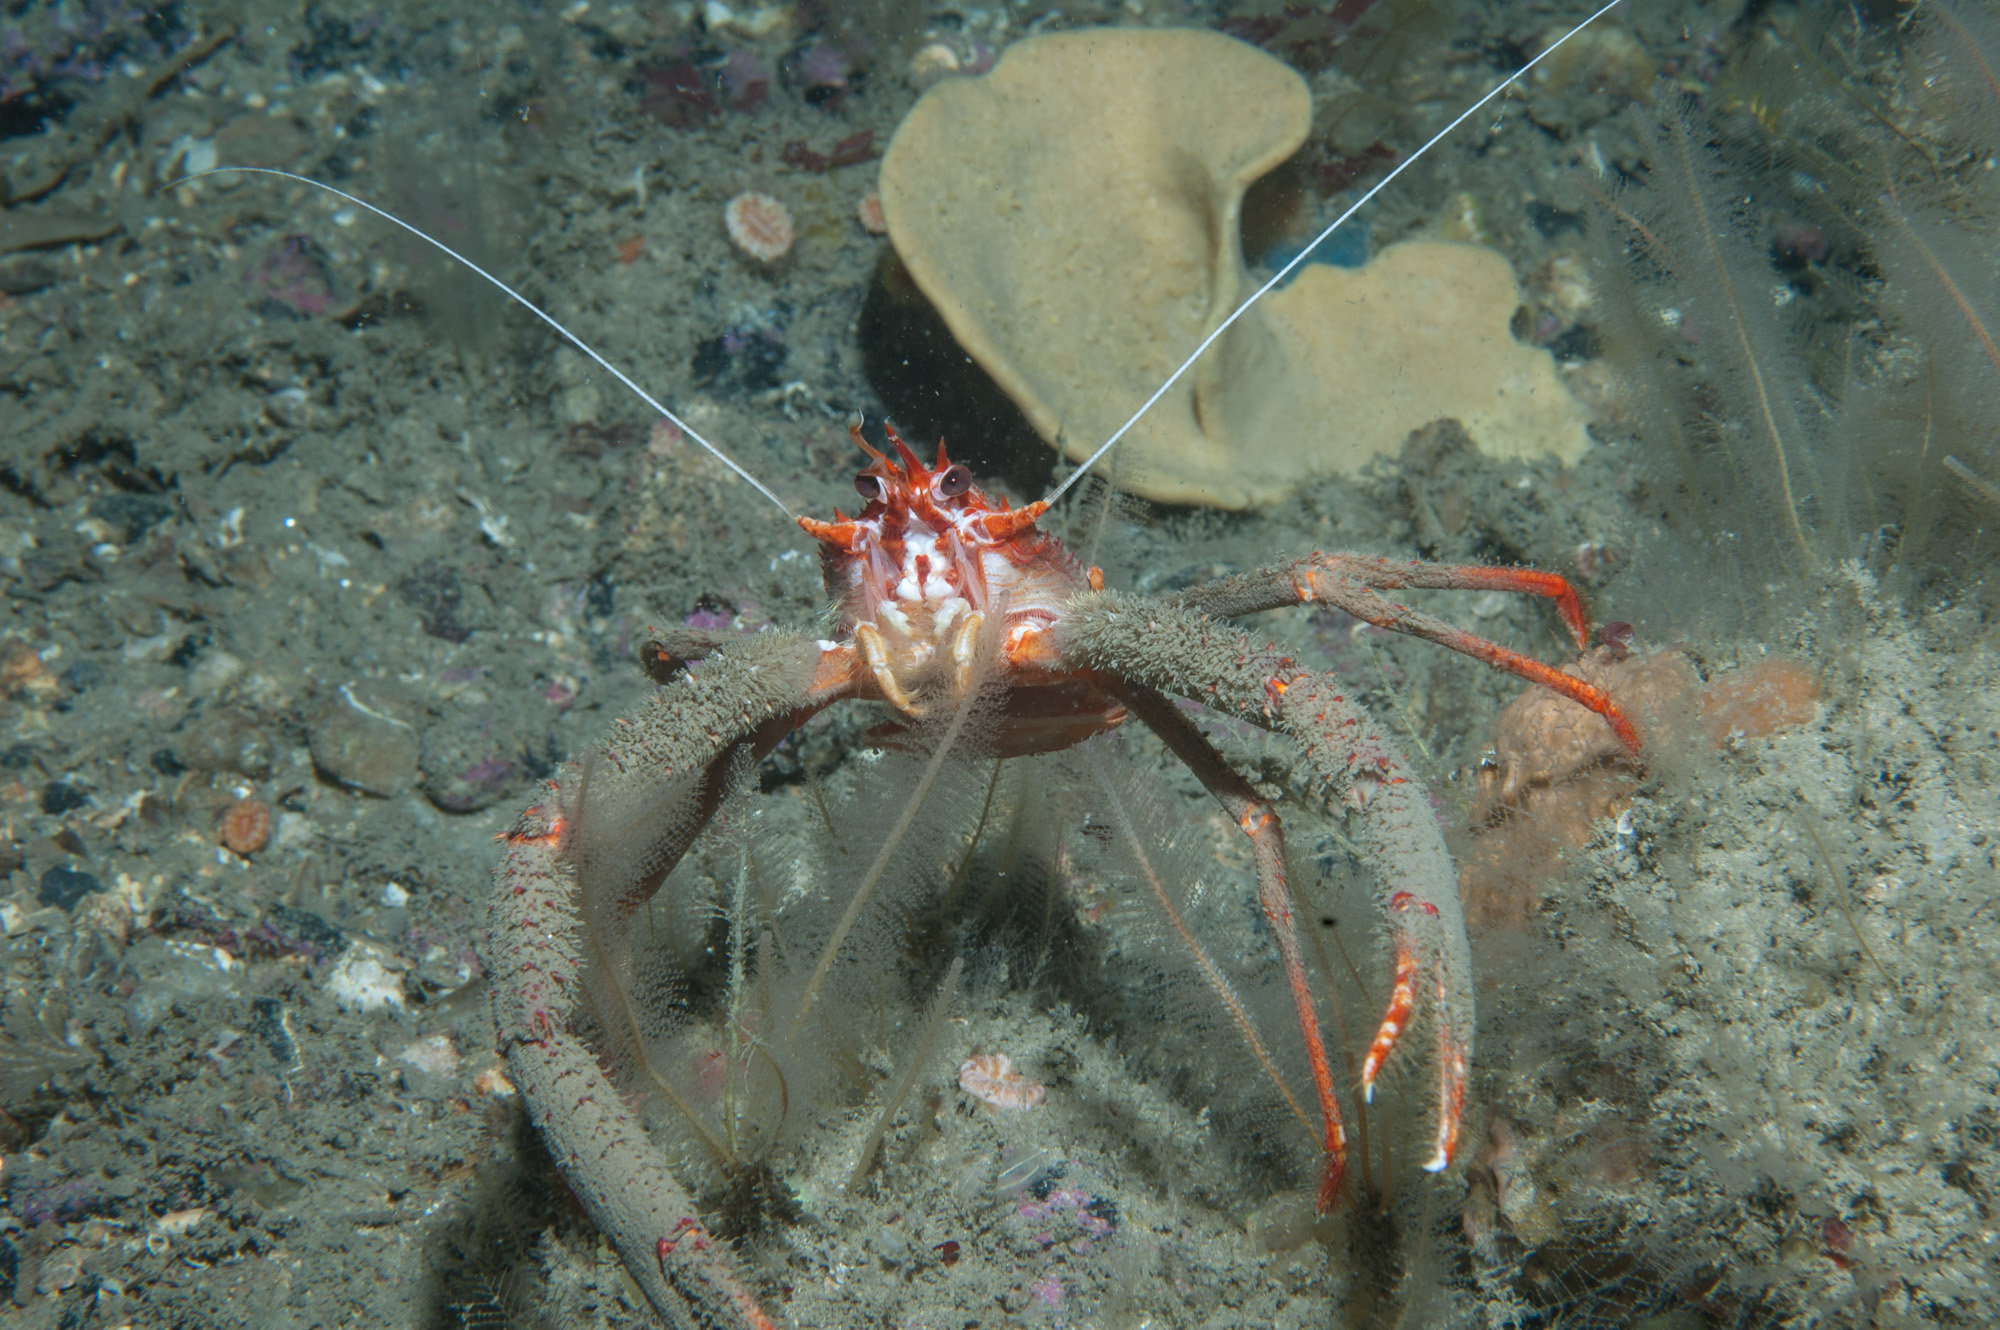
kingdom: Animalia
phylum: Arthropoda
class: Malacostraca
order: Decapoda
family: Munididae
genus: Munida
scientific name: Munida rugosa
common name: Rugose squat lobster
